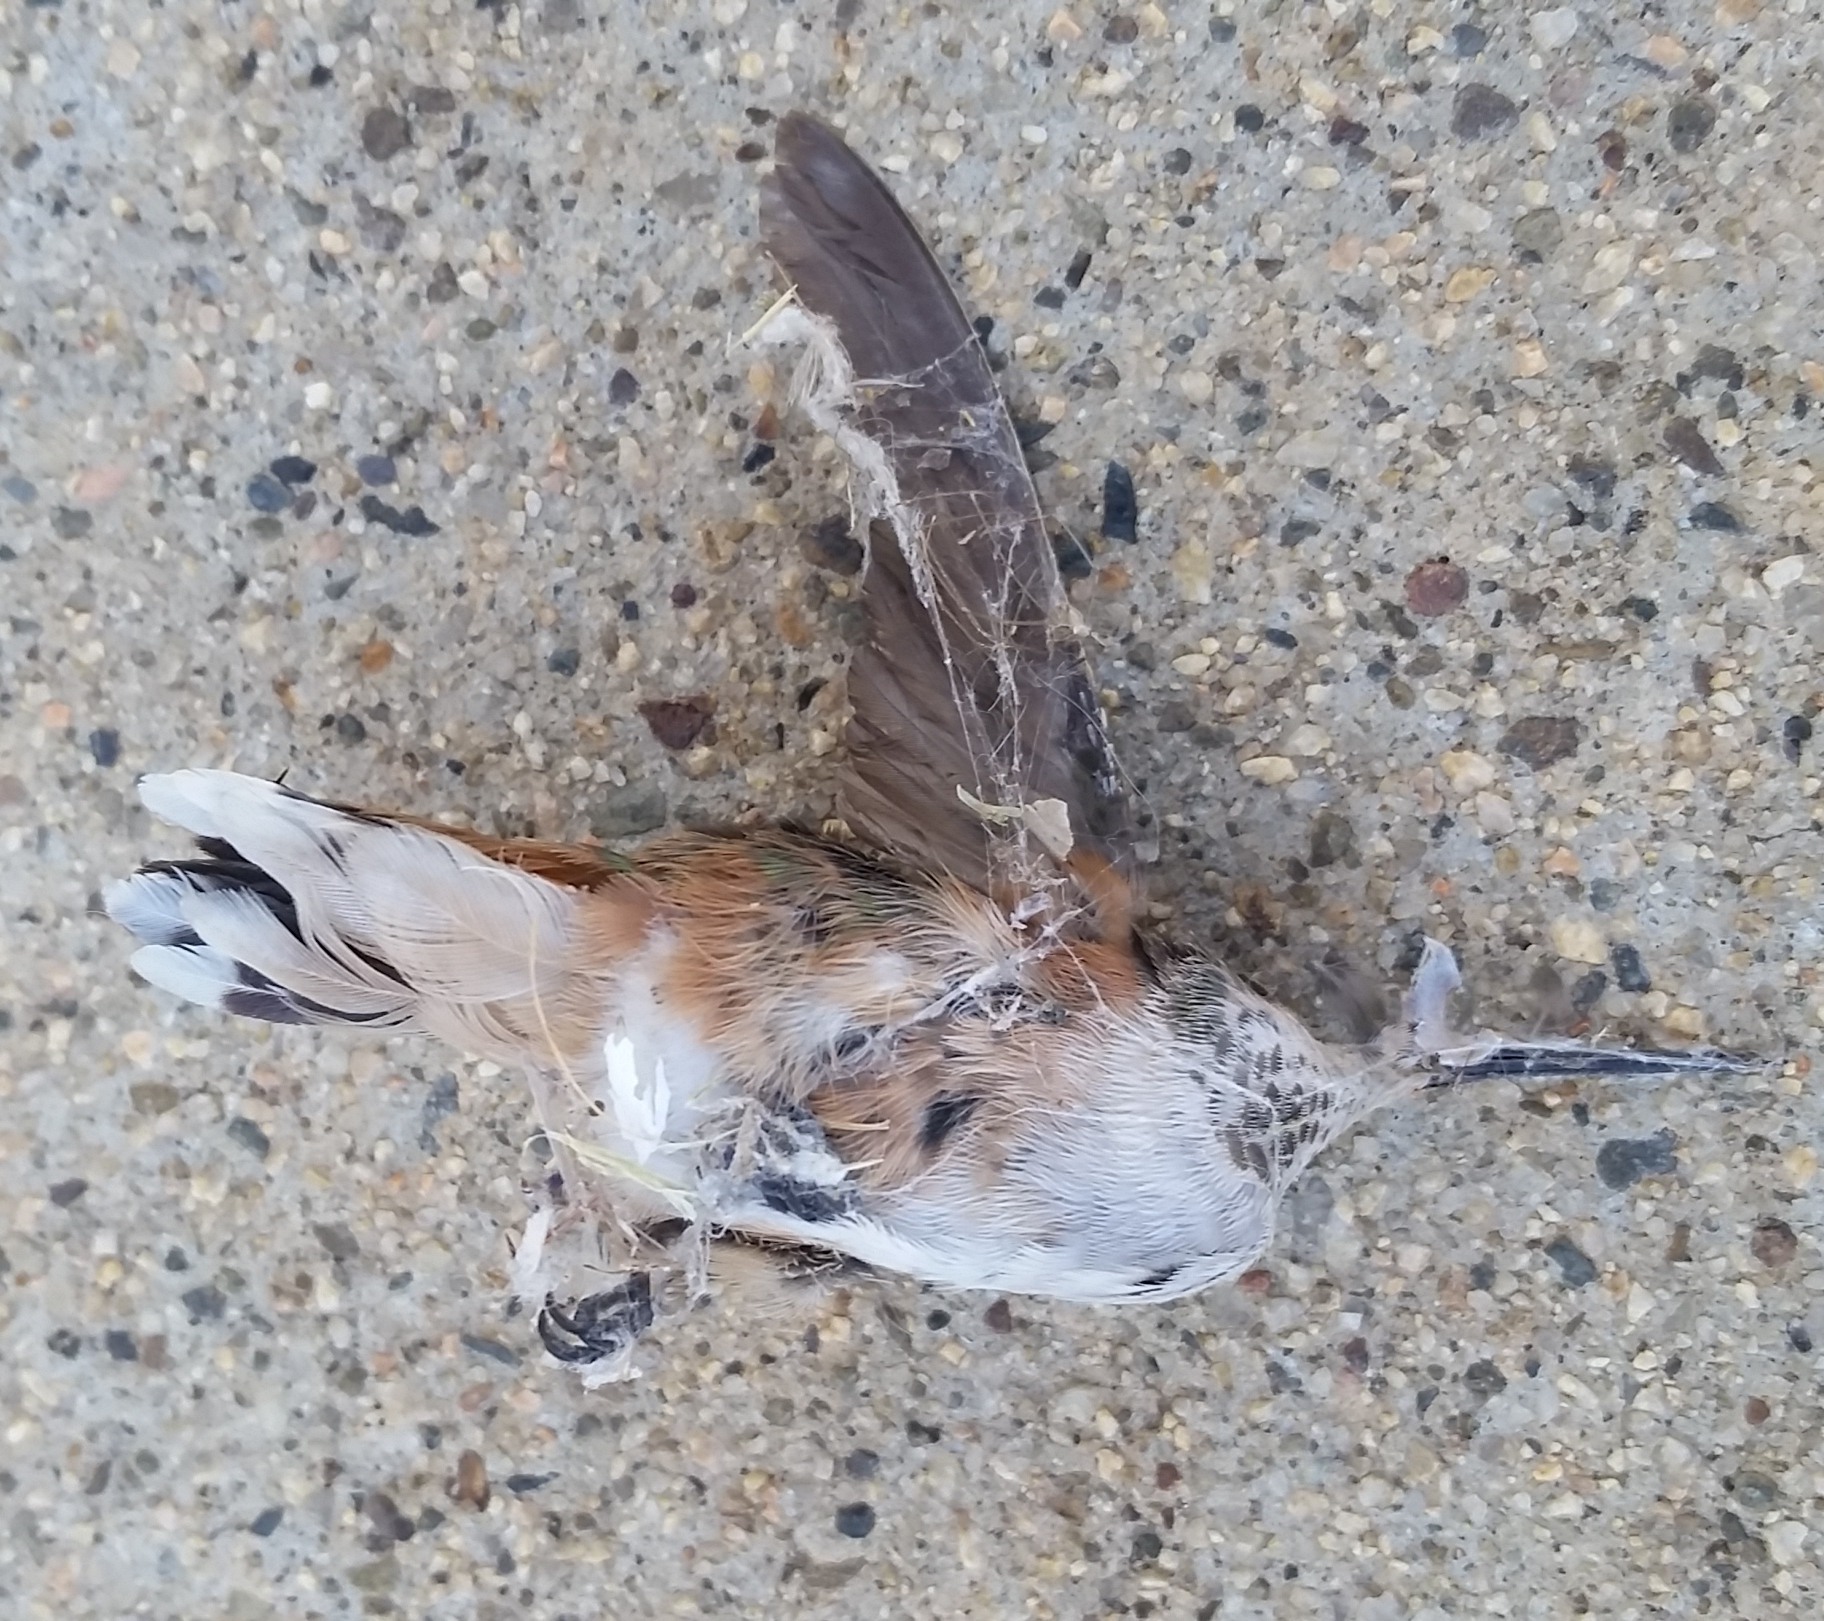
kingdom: Animalia
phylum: Chordata
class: Aves
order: Apodiformes
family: Trochilidae
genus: Selasphorus
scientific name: Selasphorus sasin
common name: Allen's hummingbird
